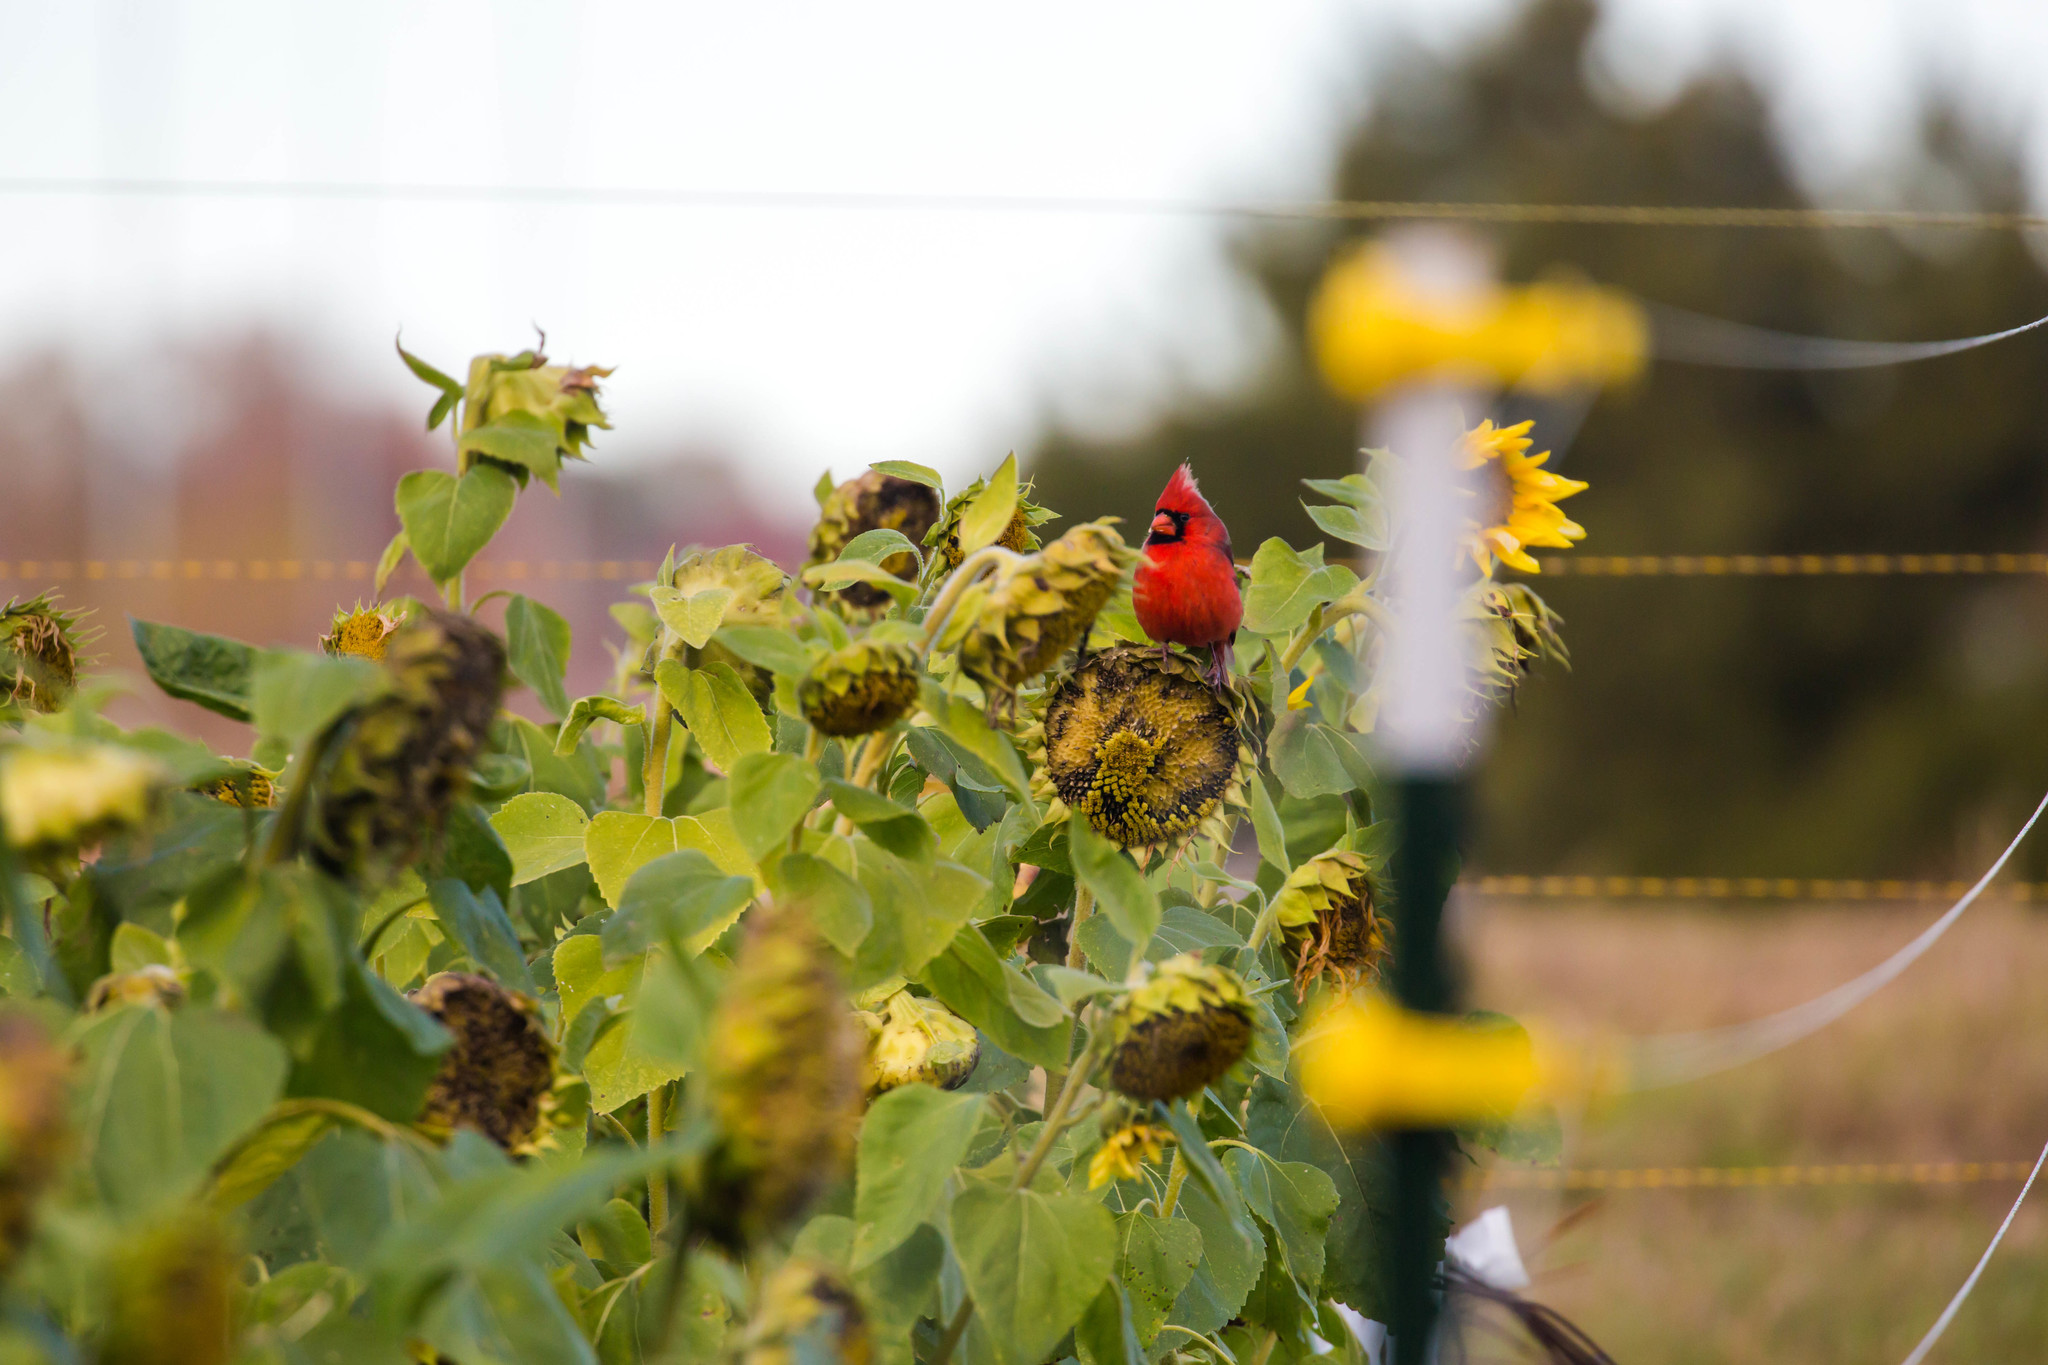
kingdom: Animalia
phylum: Chordata
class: Aves
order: Passeriformes
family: Cardinalidae
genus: Cardinalis
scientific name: Cardinalis cardinalis
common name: Northern cardinal
